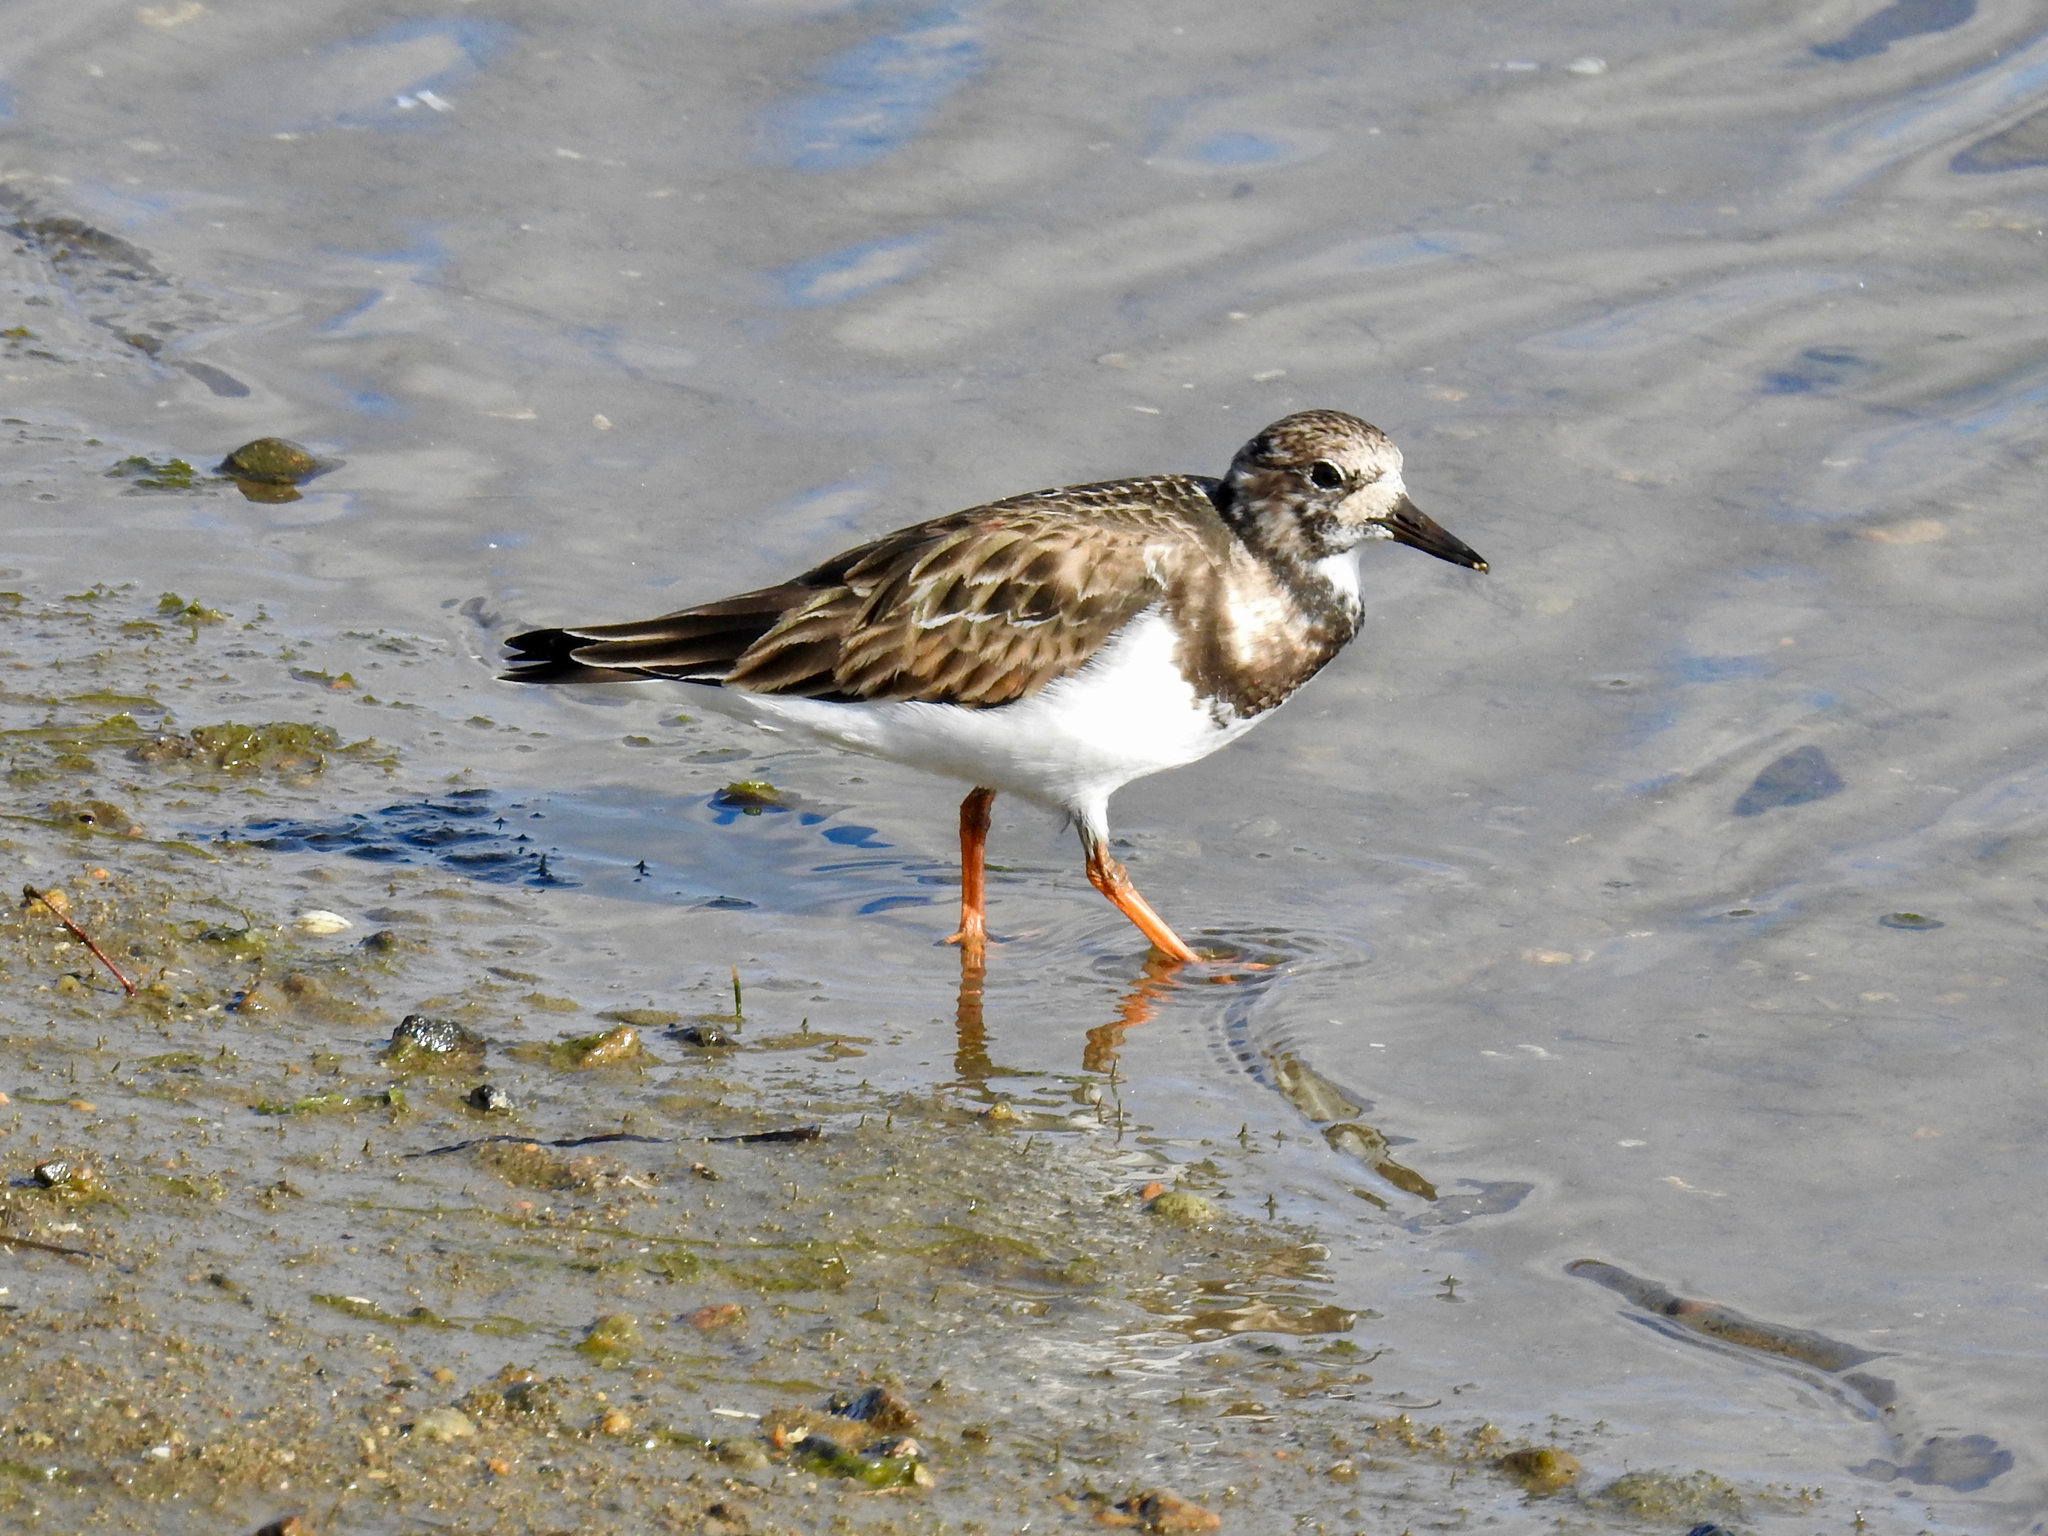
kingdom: Animalia
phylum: Chordata
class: Aves
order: Charadriiformes
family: Scolopacidae
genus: Arenaria
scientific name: Arenaria interpres
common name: Ruddy turnstone
